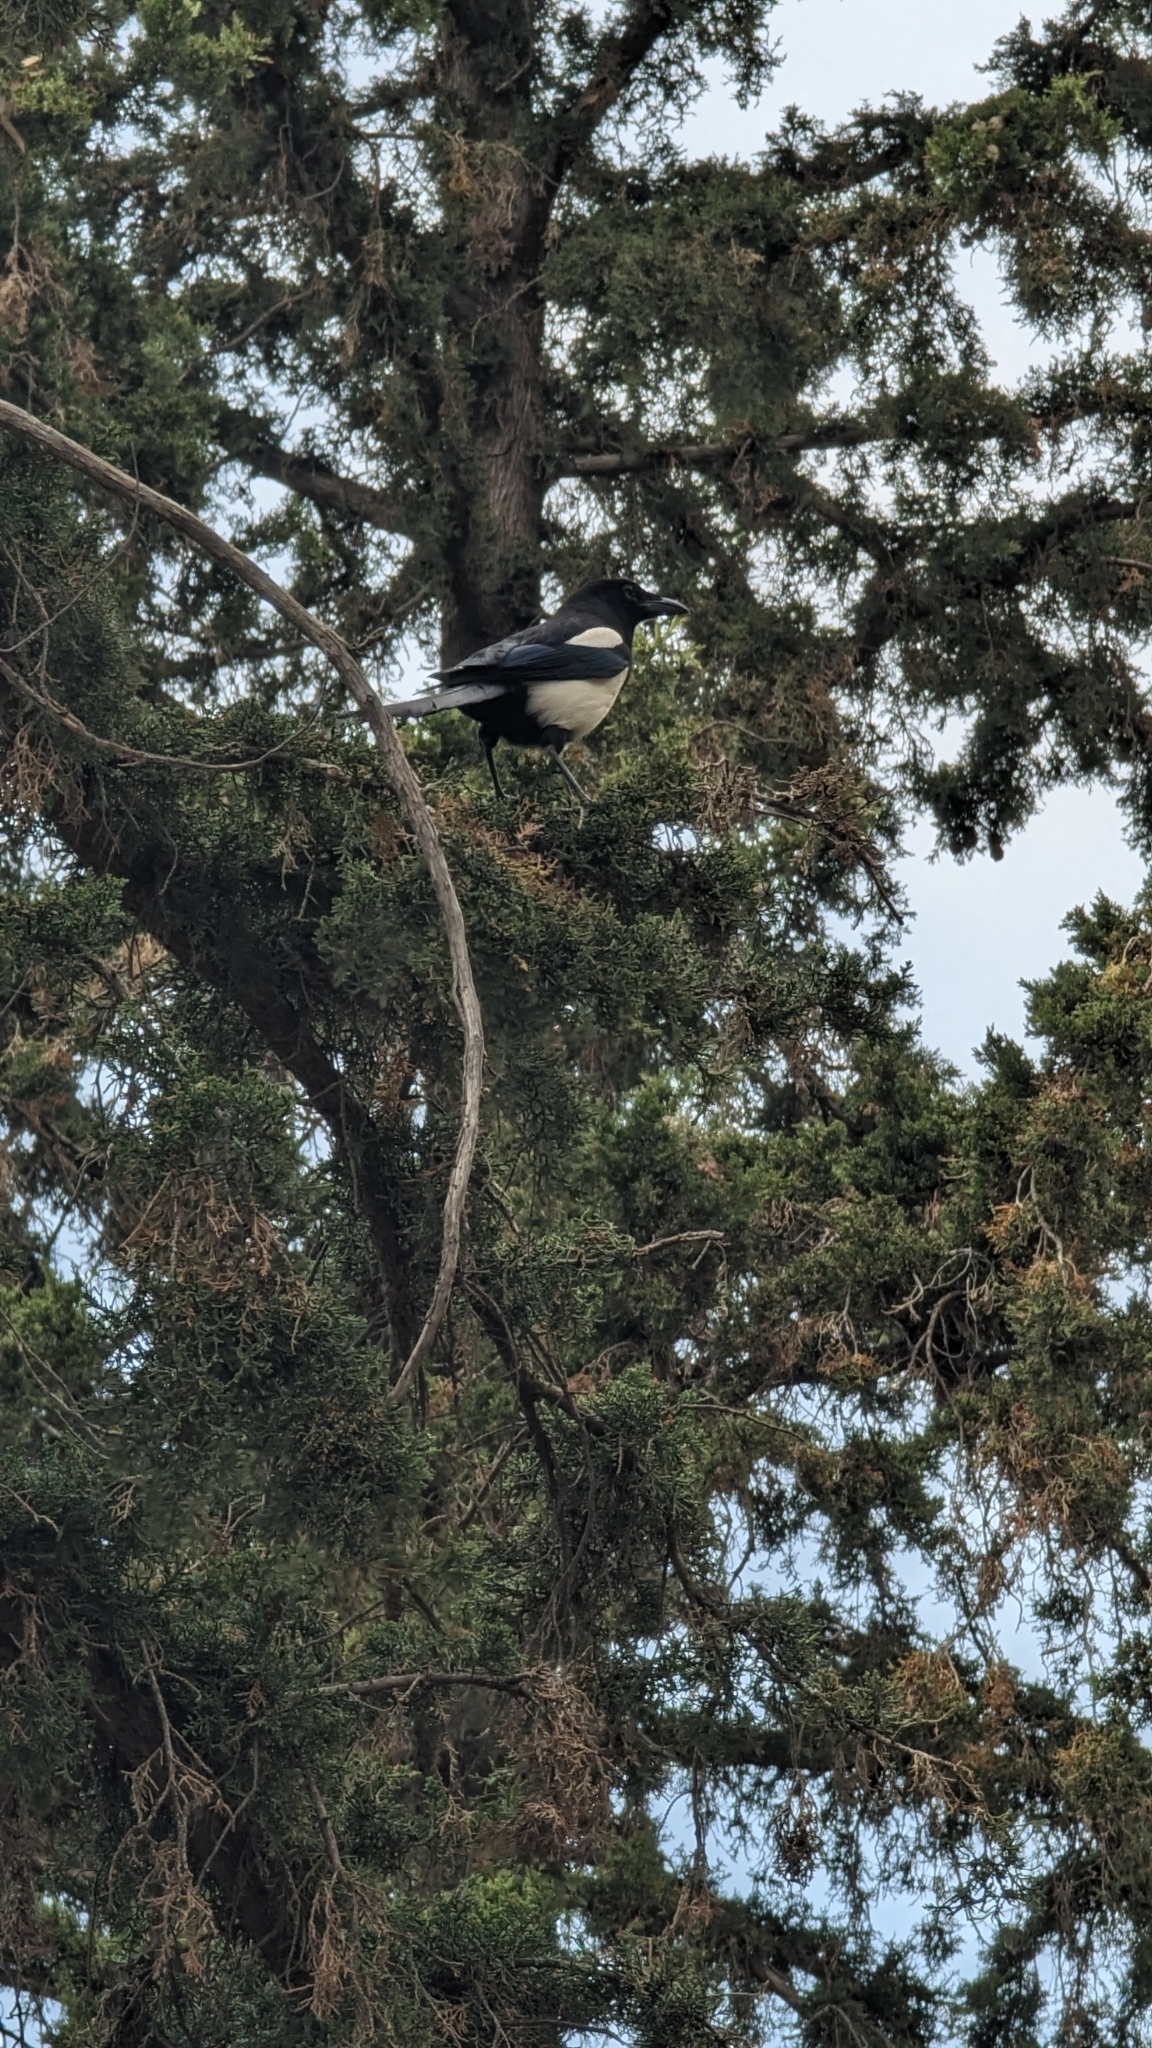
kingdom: Animalia
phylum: Chordata
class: Aves
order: Passeriformes
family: Corvidae
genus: Pica
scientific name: Pica pica
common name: Eurasian magpie
